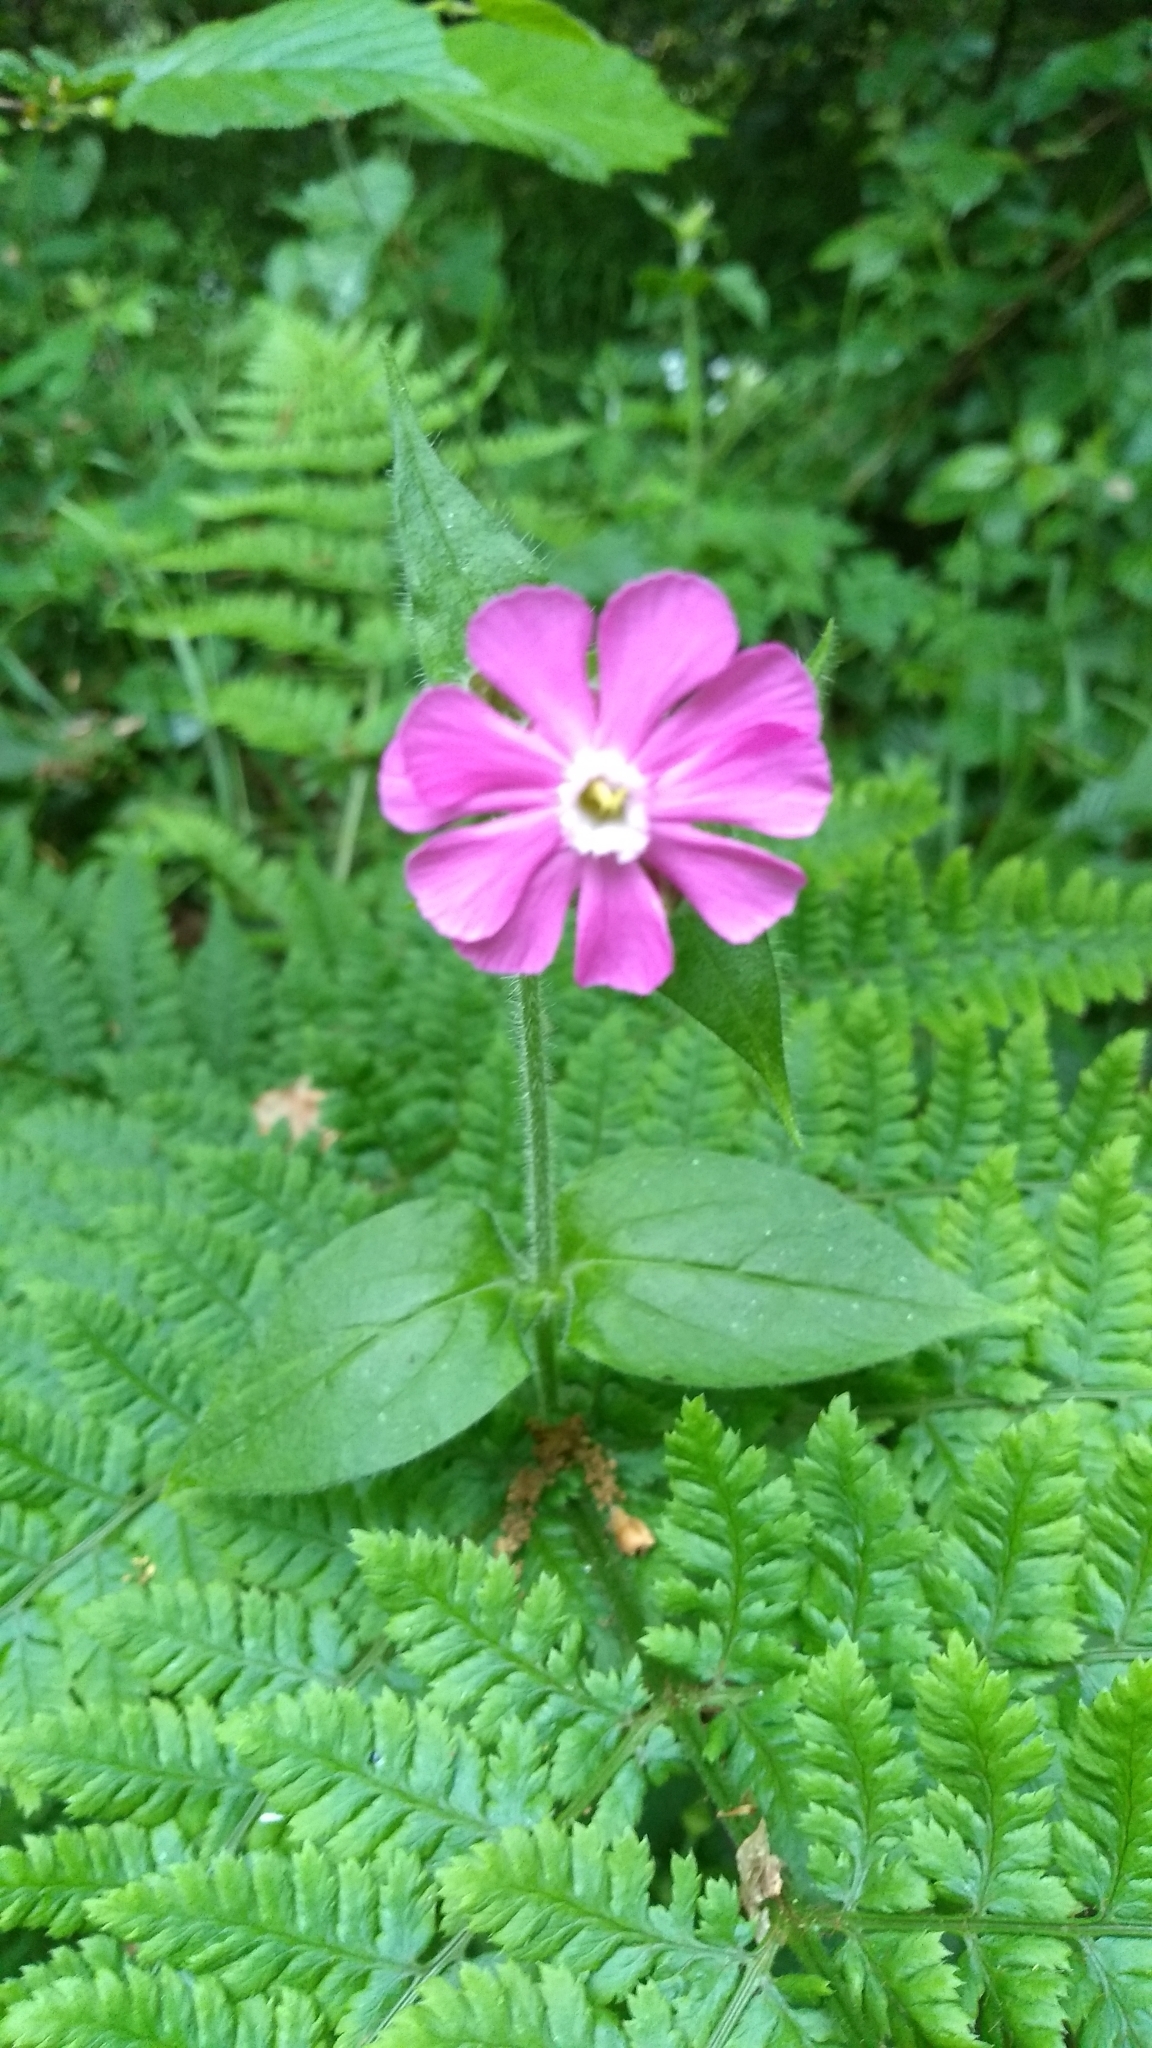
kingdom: Plantae
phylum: Tracheophyta
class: Magnoliopsida
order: Caryophyllales
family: Caryophyllaceae
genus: Silene
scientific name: Silene dioica
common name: Red campion
